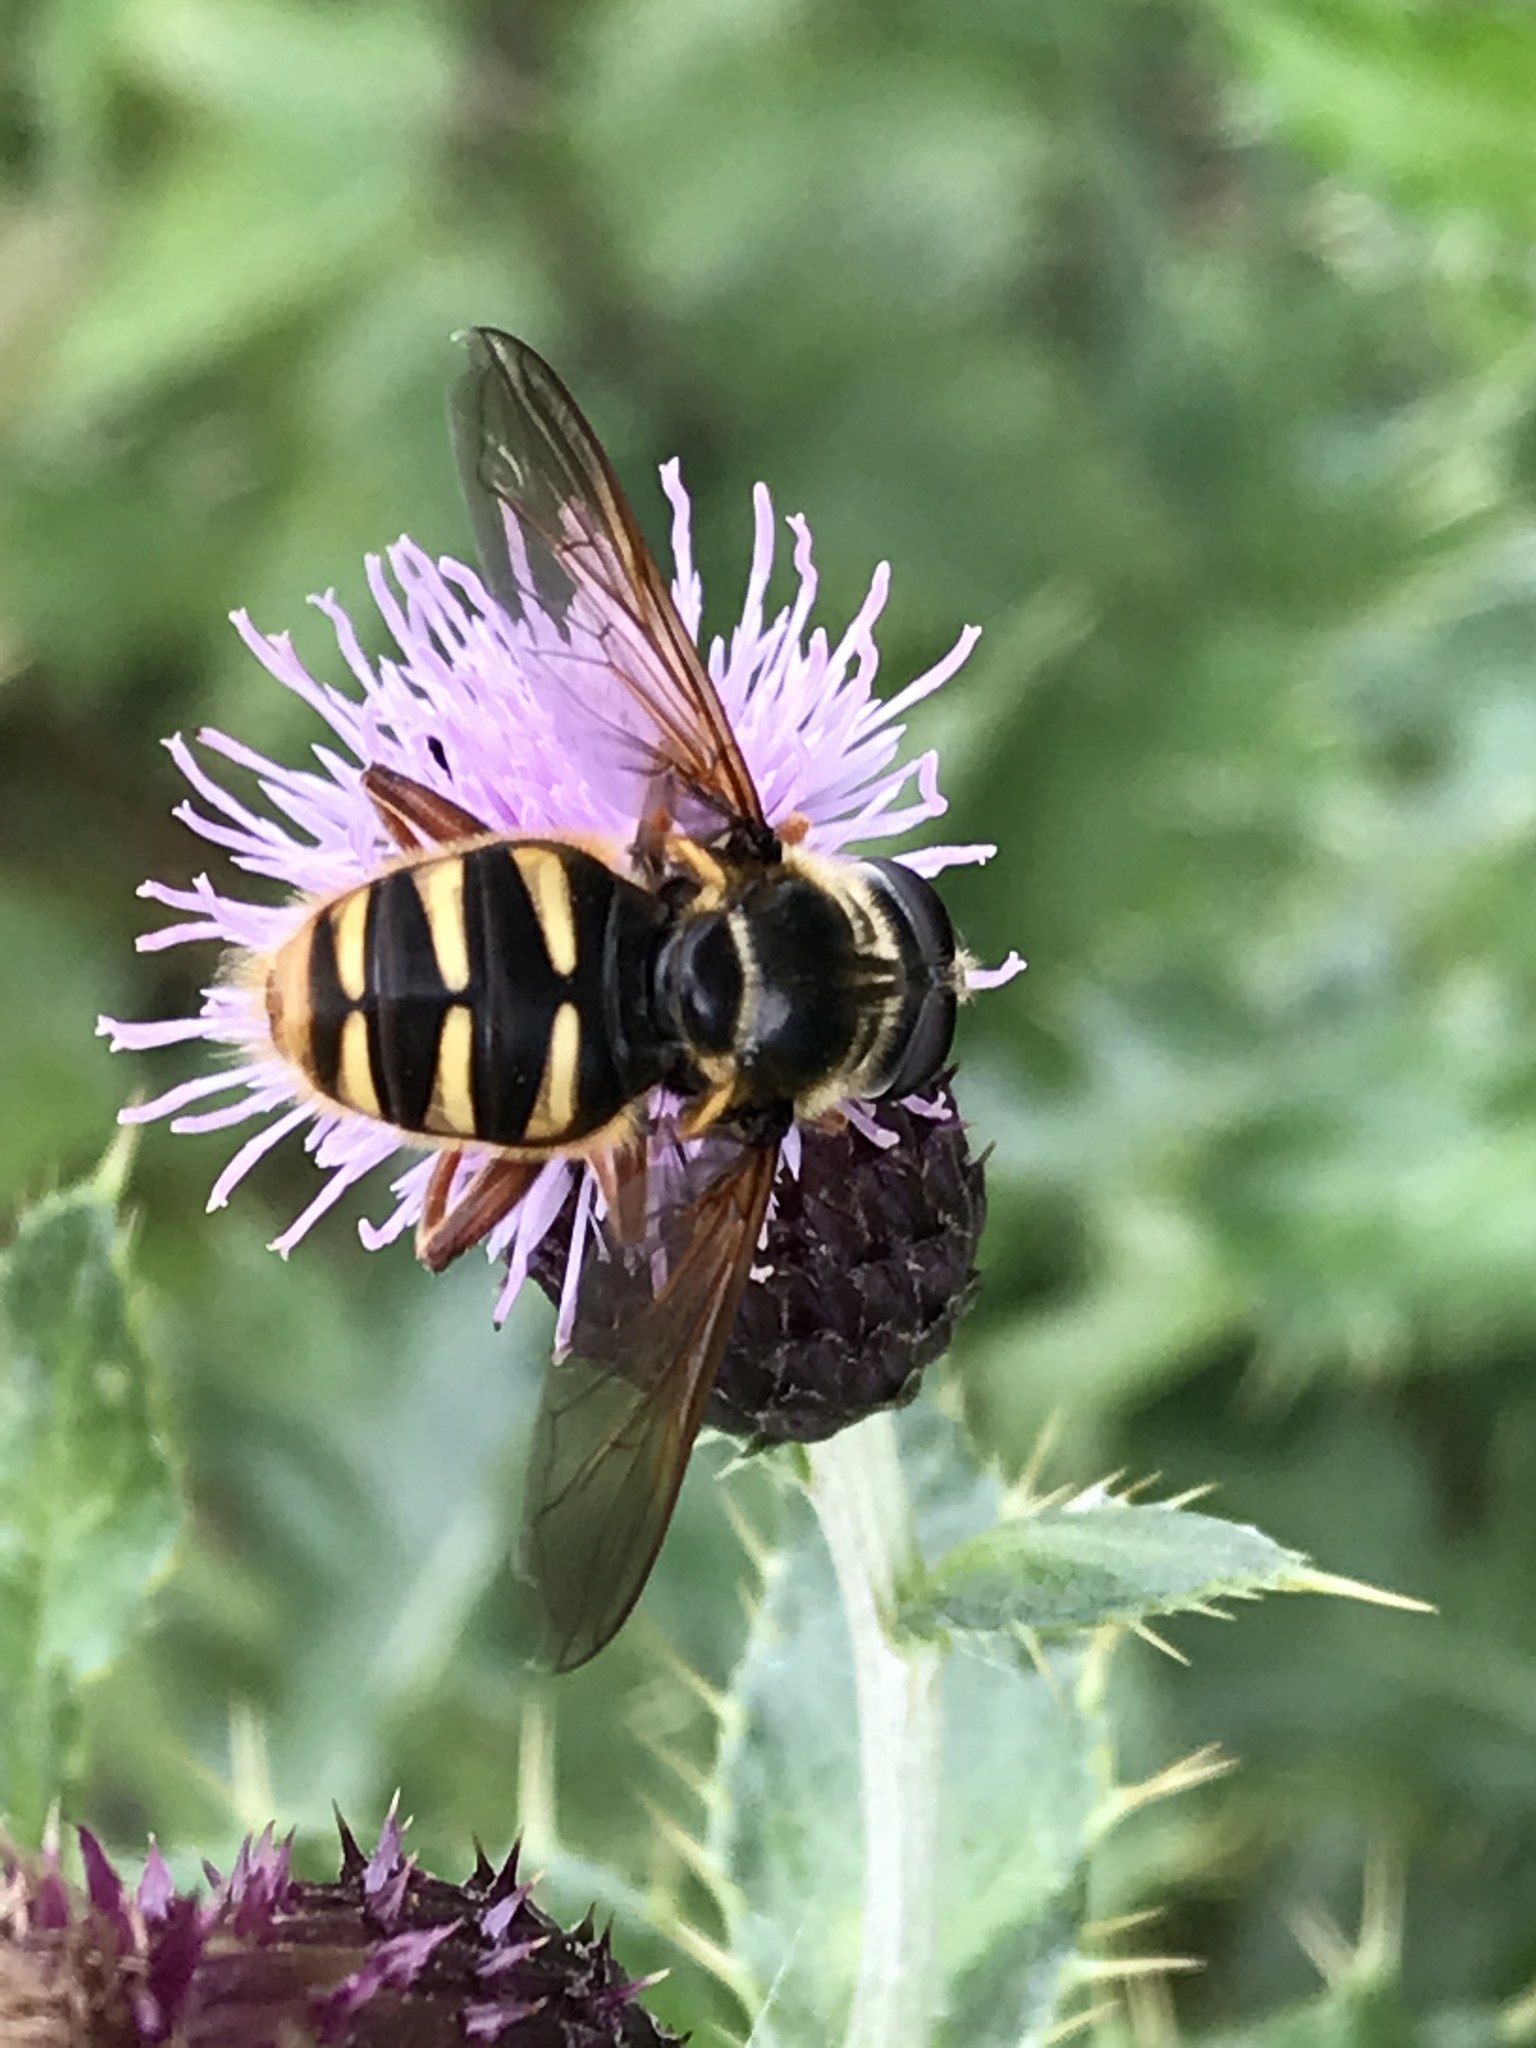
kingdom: Animalia
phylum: Arthropoda
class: Insecta
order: Diptera
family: Syrphidae
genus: Sericomyia
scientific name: Sericomyia silentis
